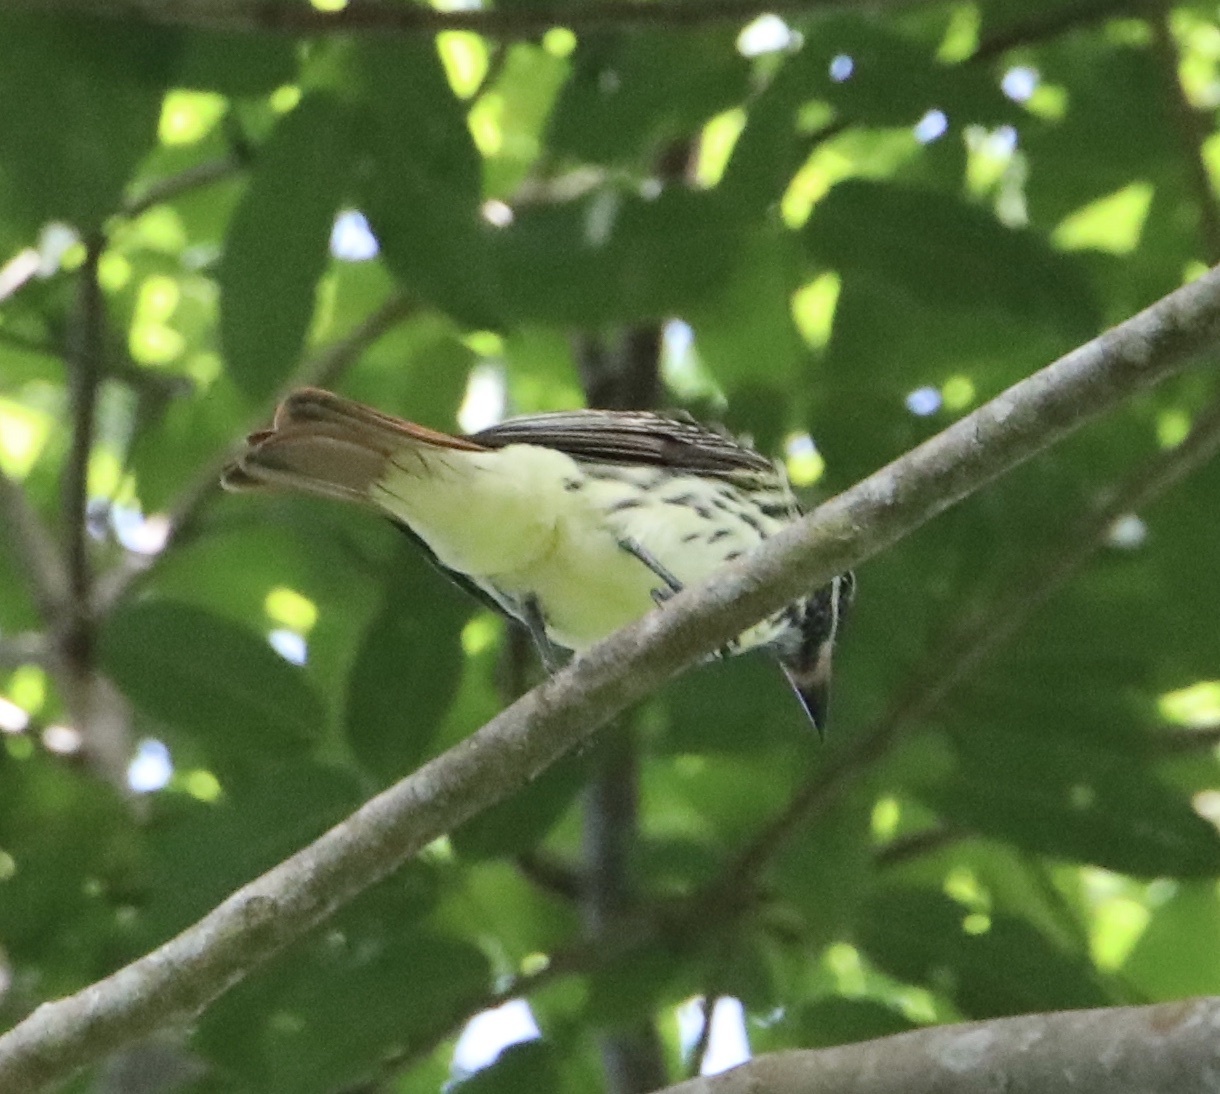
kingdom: Animalia
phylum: Chordata
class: Aves
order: Passeriformes
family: Tyrannidae
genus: Myiodynastes
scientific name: Myiodynastes luteiventris
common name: Sulphur-bellied flycatcher
